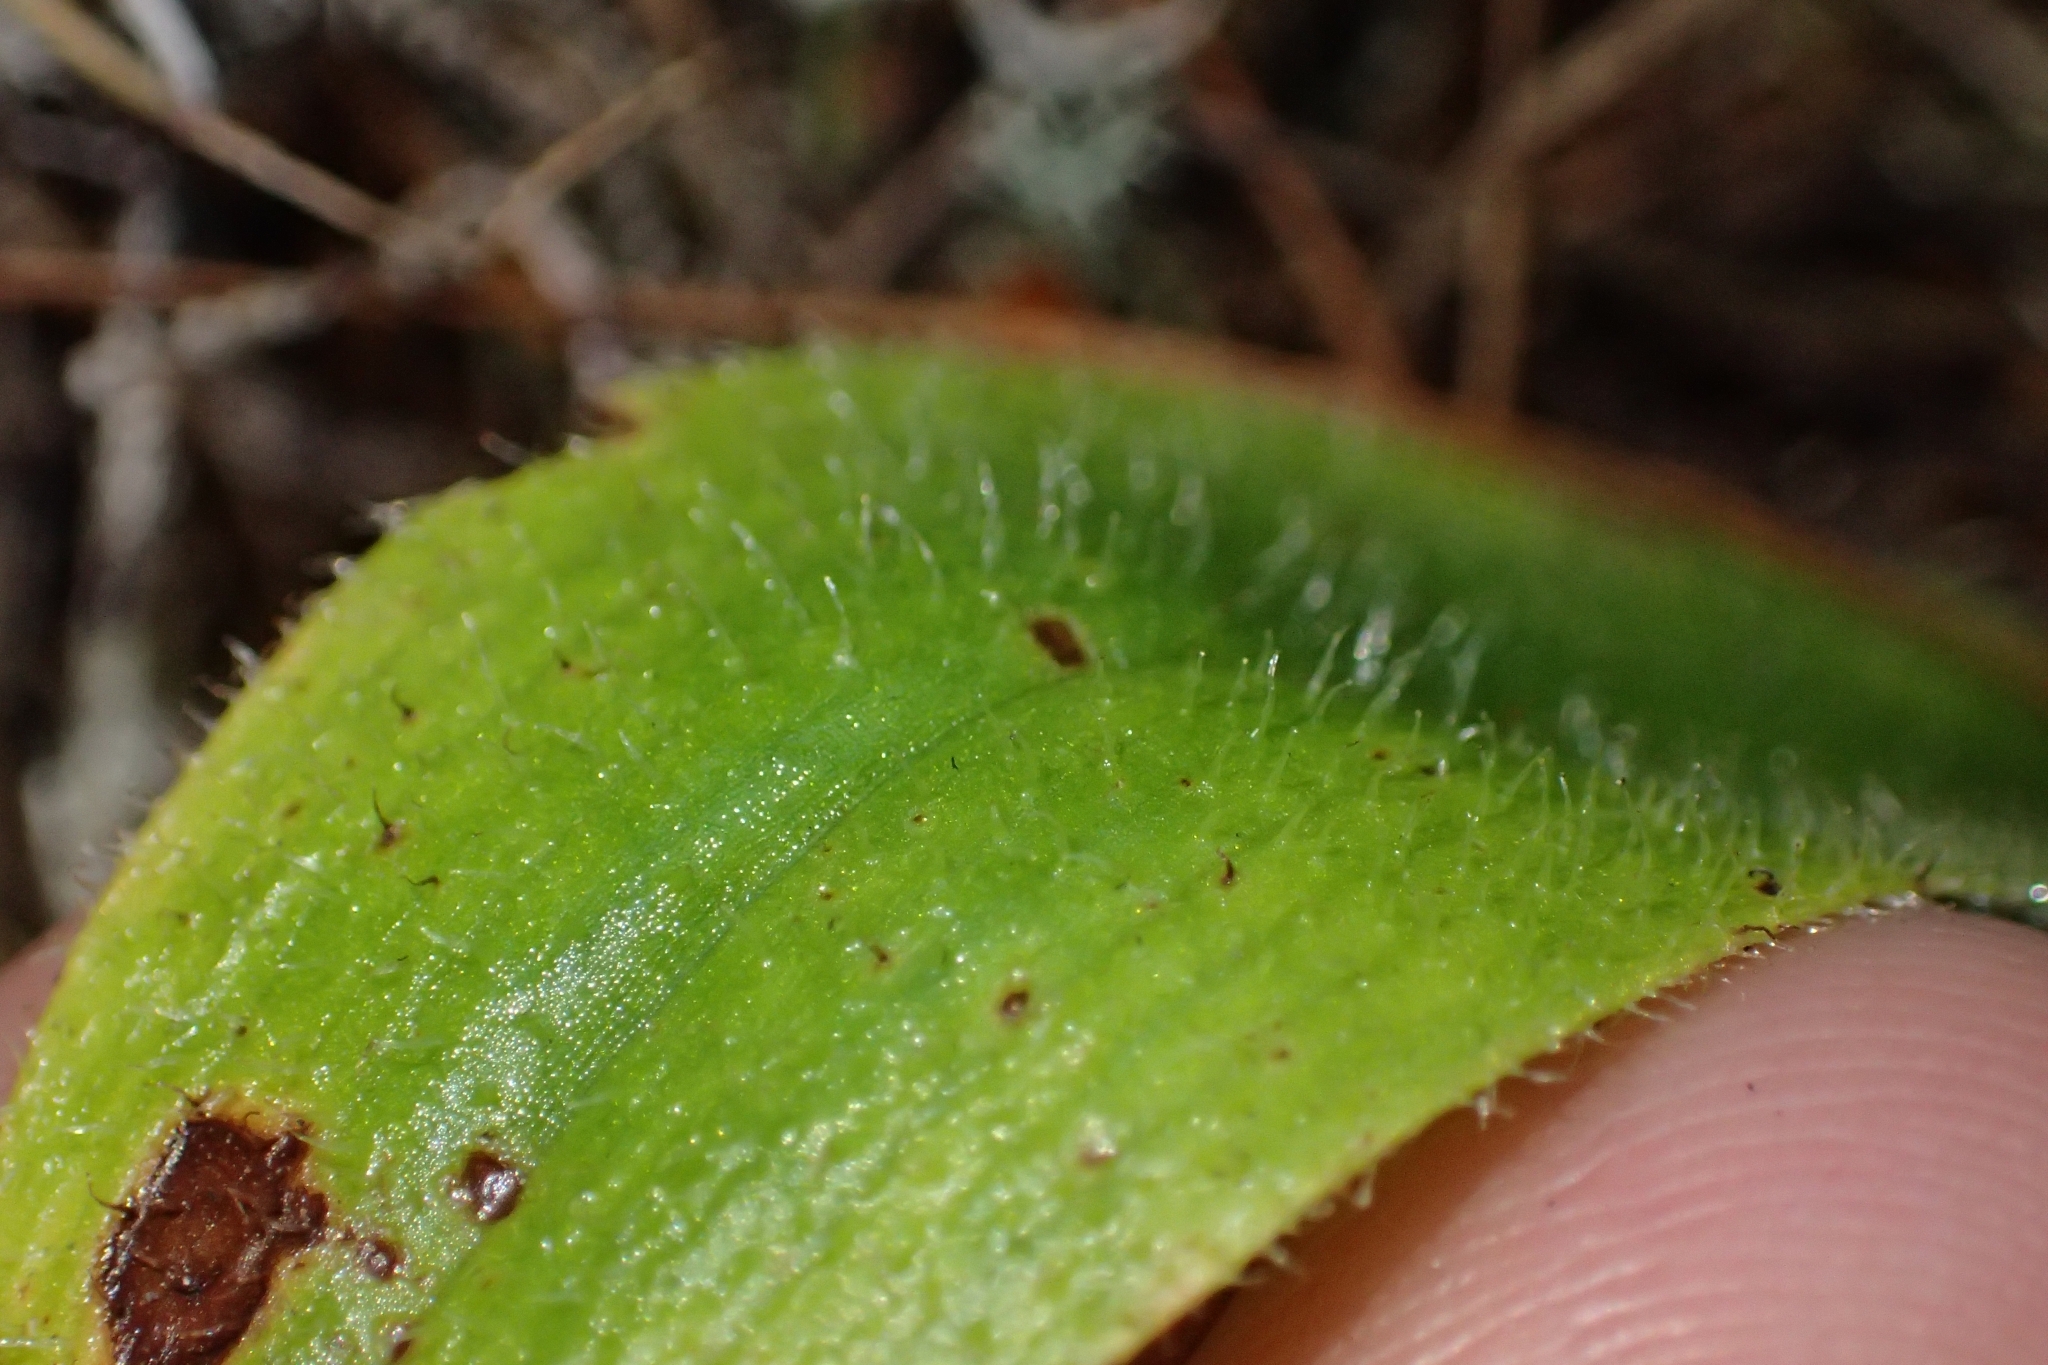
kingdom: Plantae
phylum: Tracheophyta
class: Liliopsida
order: Asparagales
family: Orchidaceae
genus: Aporostylis
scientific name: Aporostylis bifolia
